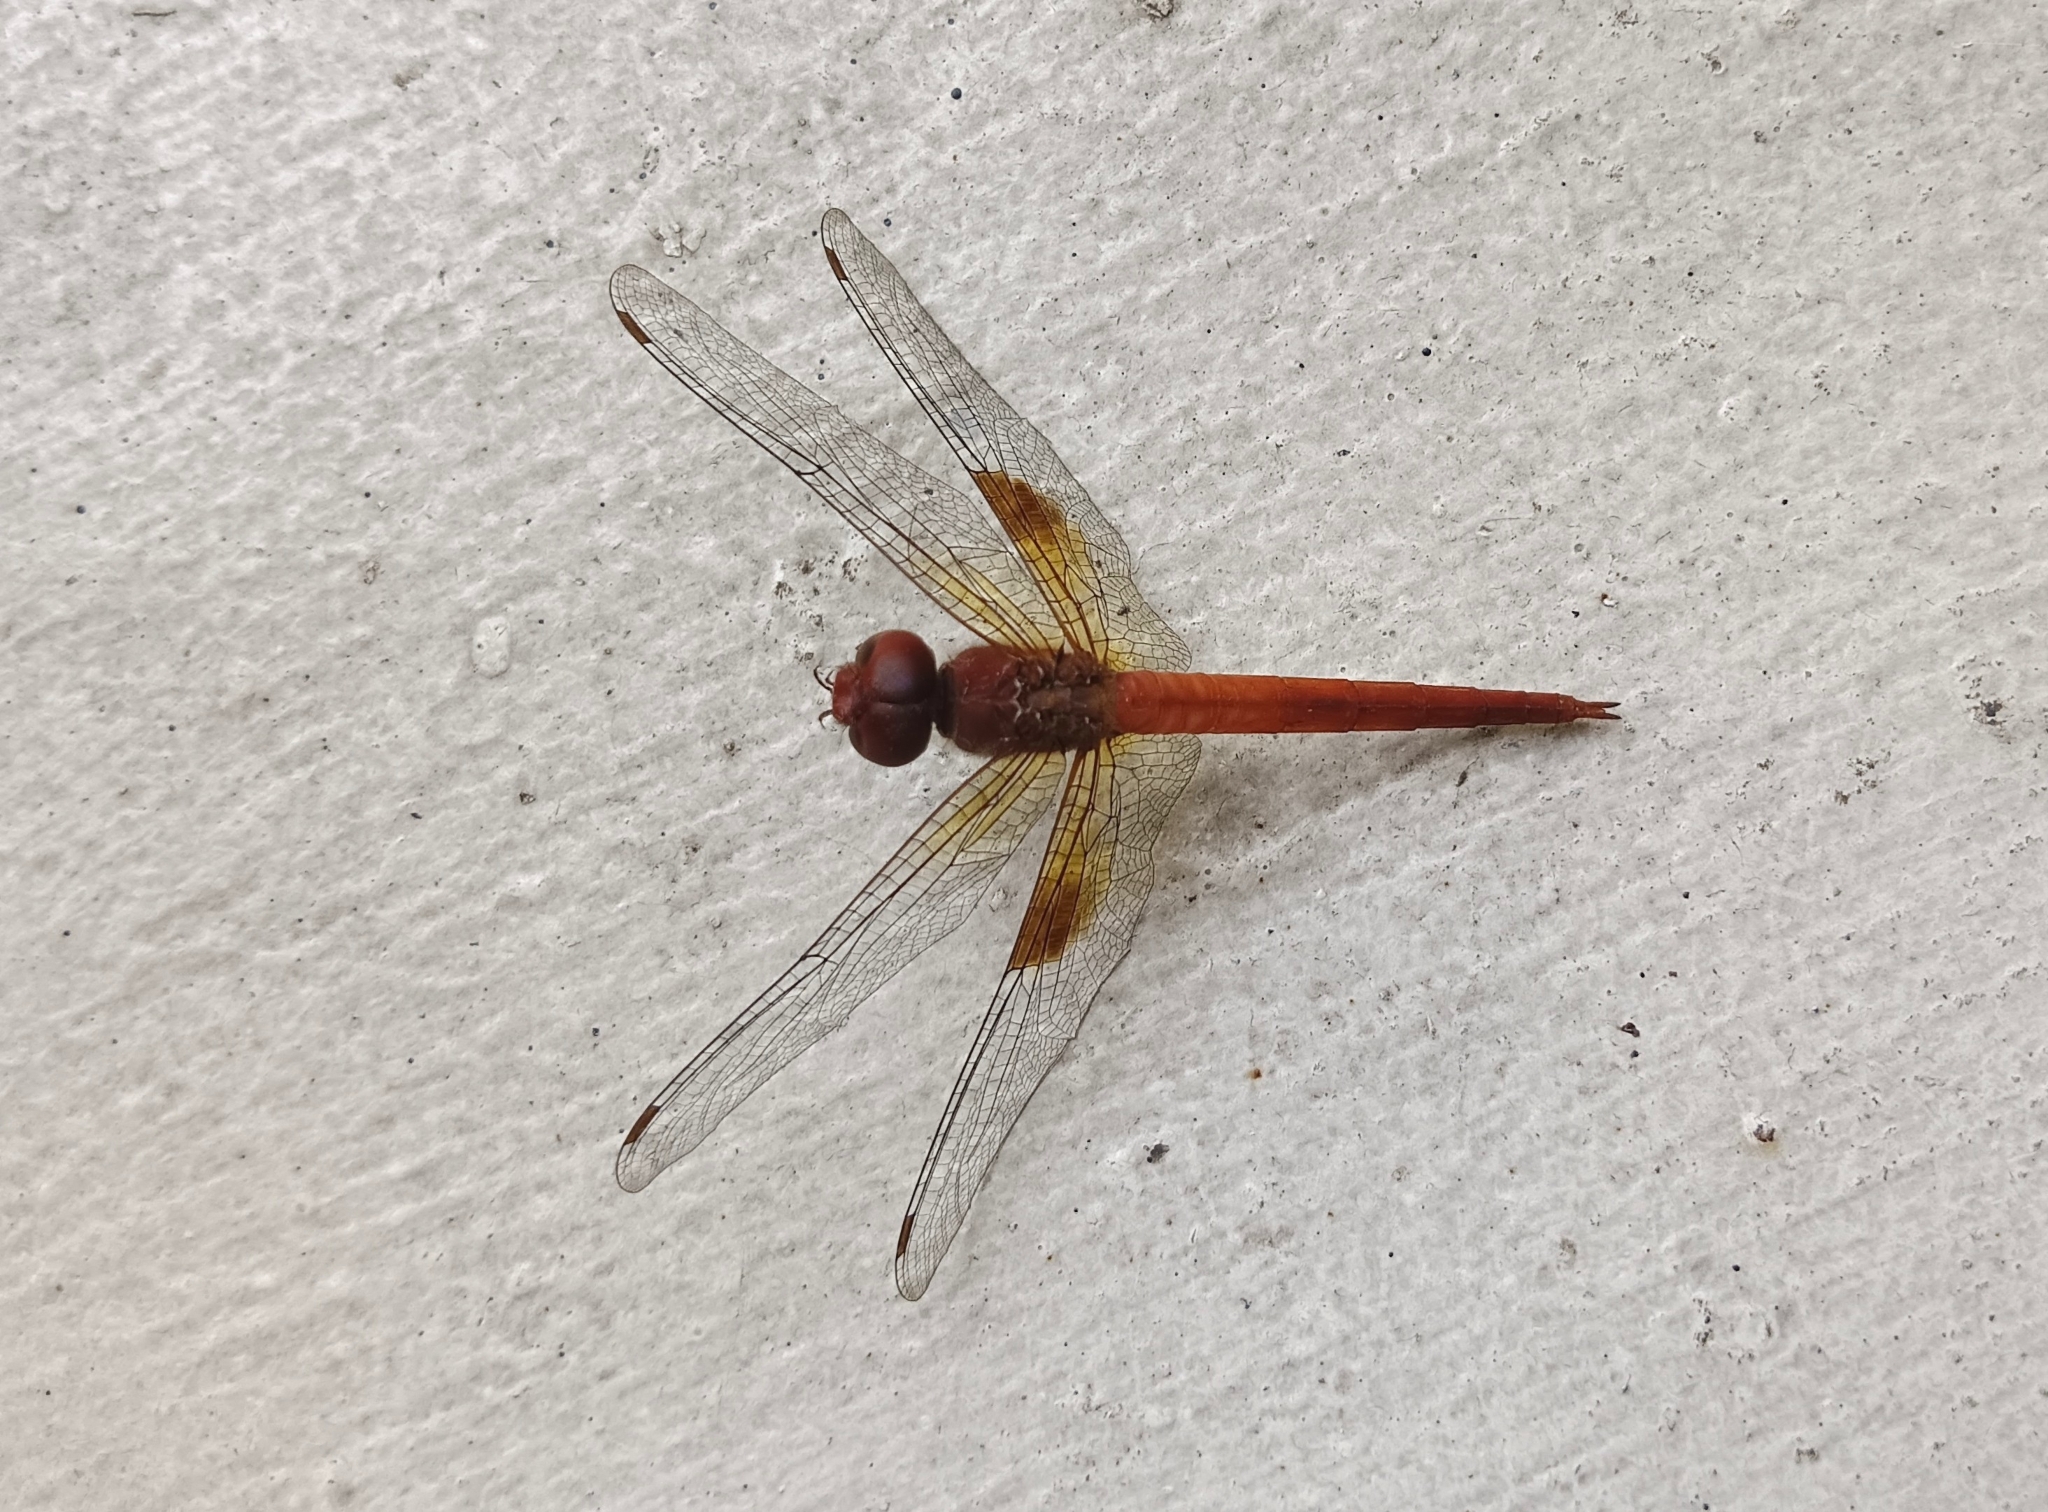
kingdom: Animalia
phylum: Arthropoda
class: Insecta
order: Odonata
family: Libellulidae
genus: Tholymis
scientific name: Tholymis tillarga
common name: Coral-tailed cloud wing
